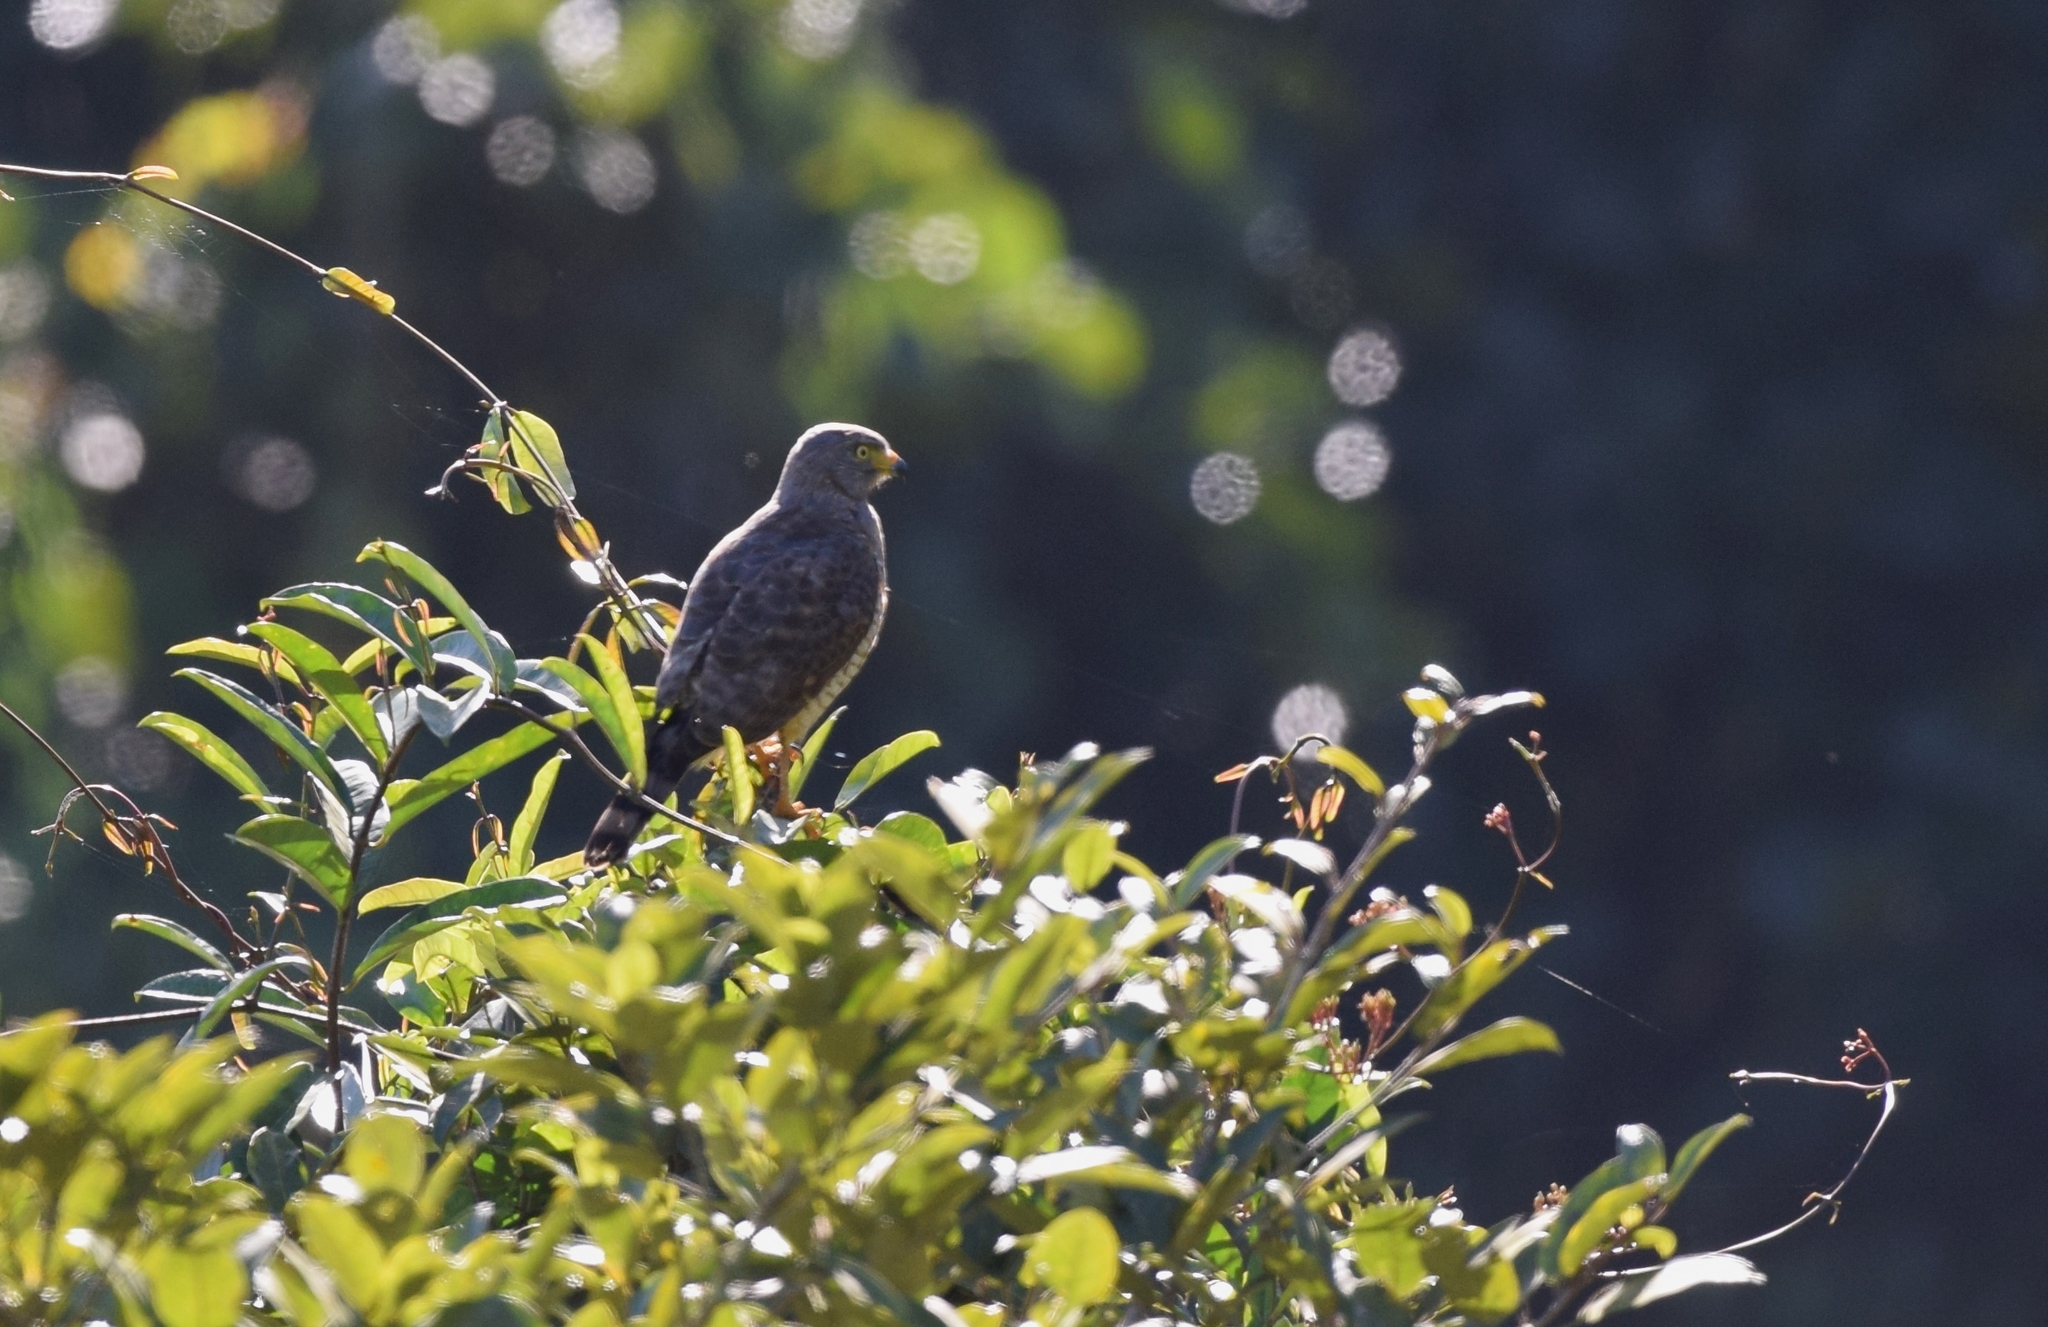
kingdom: Animalia
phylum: Chordata
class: Aves
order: Accipitriformes
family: Accipitridae
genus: Rupornis
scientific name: Rupornis magnirostris
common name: Roadside hawk
